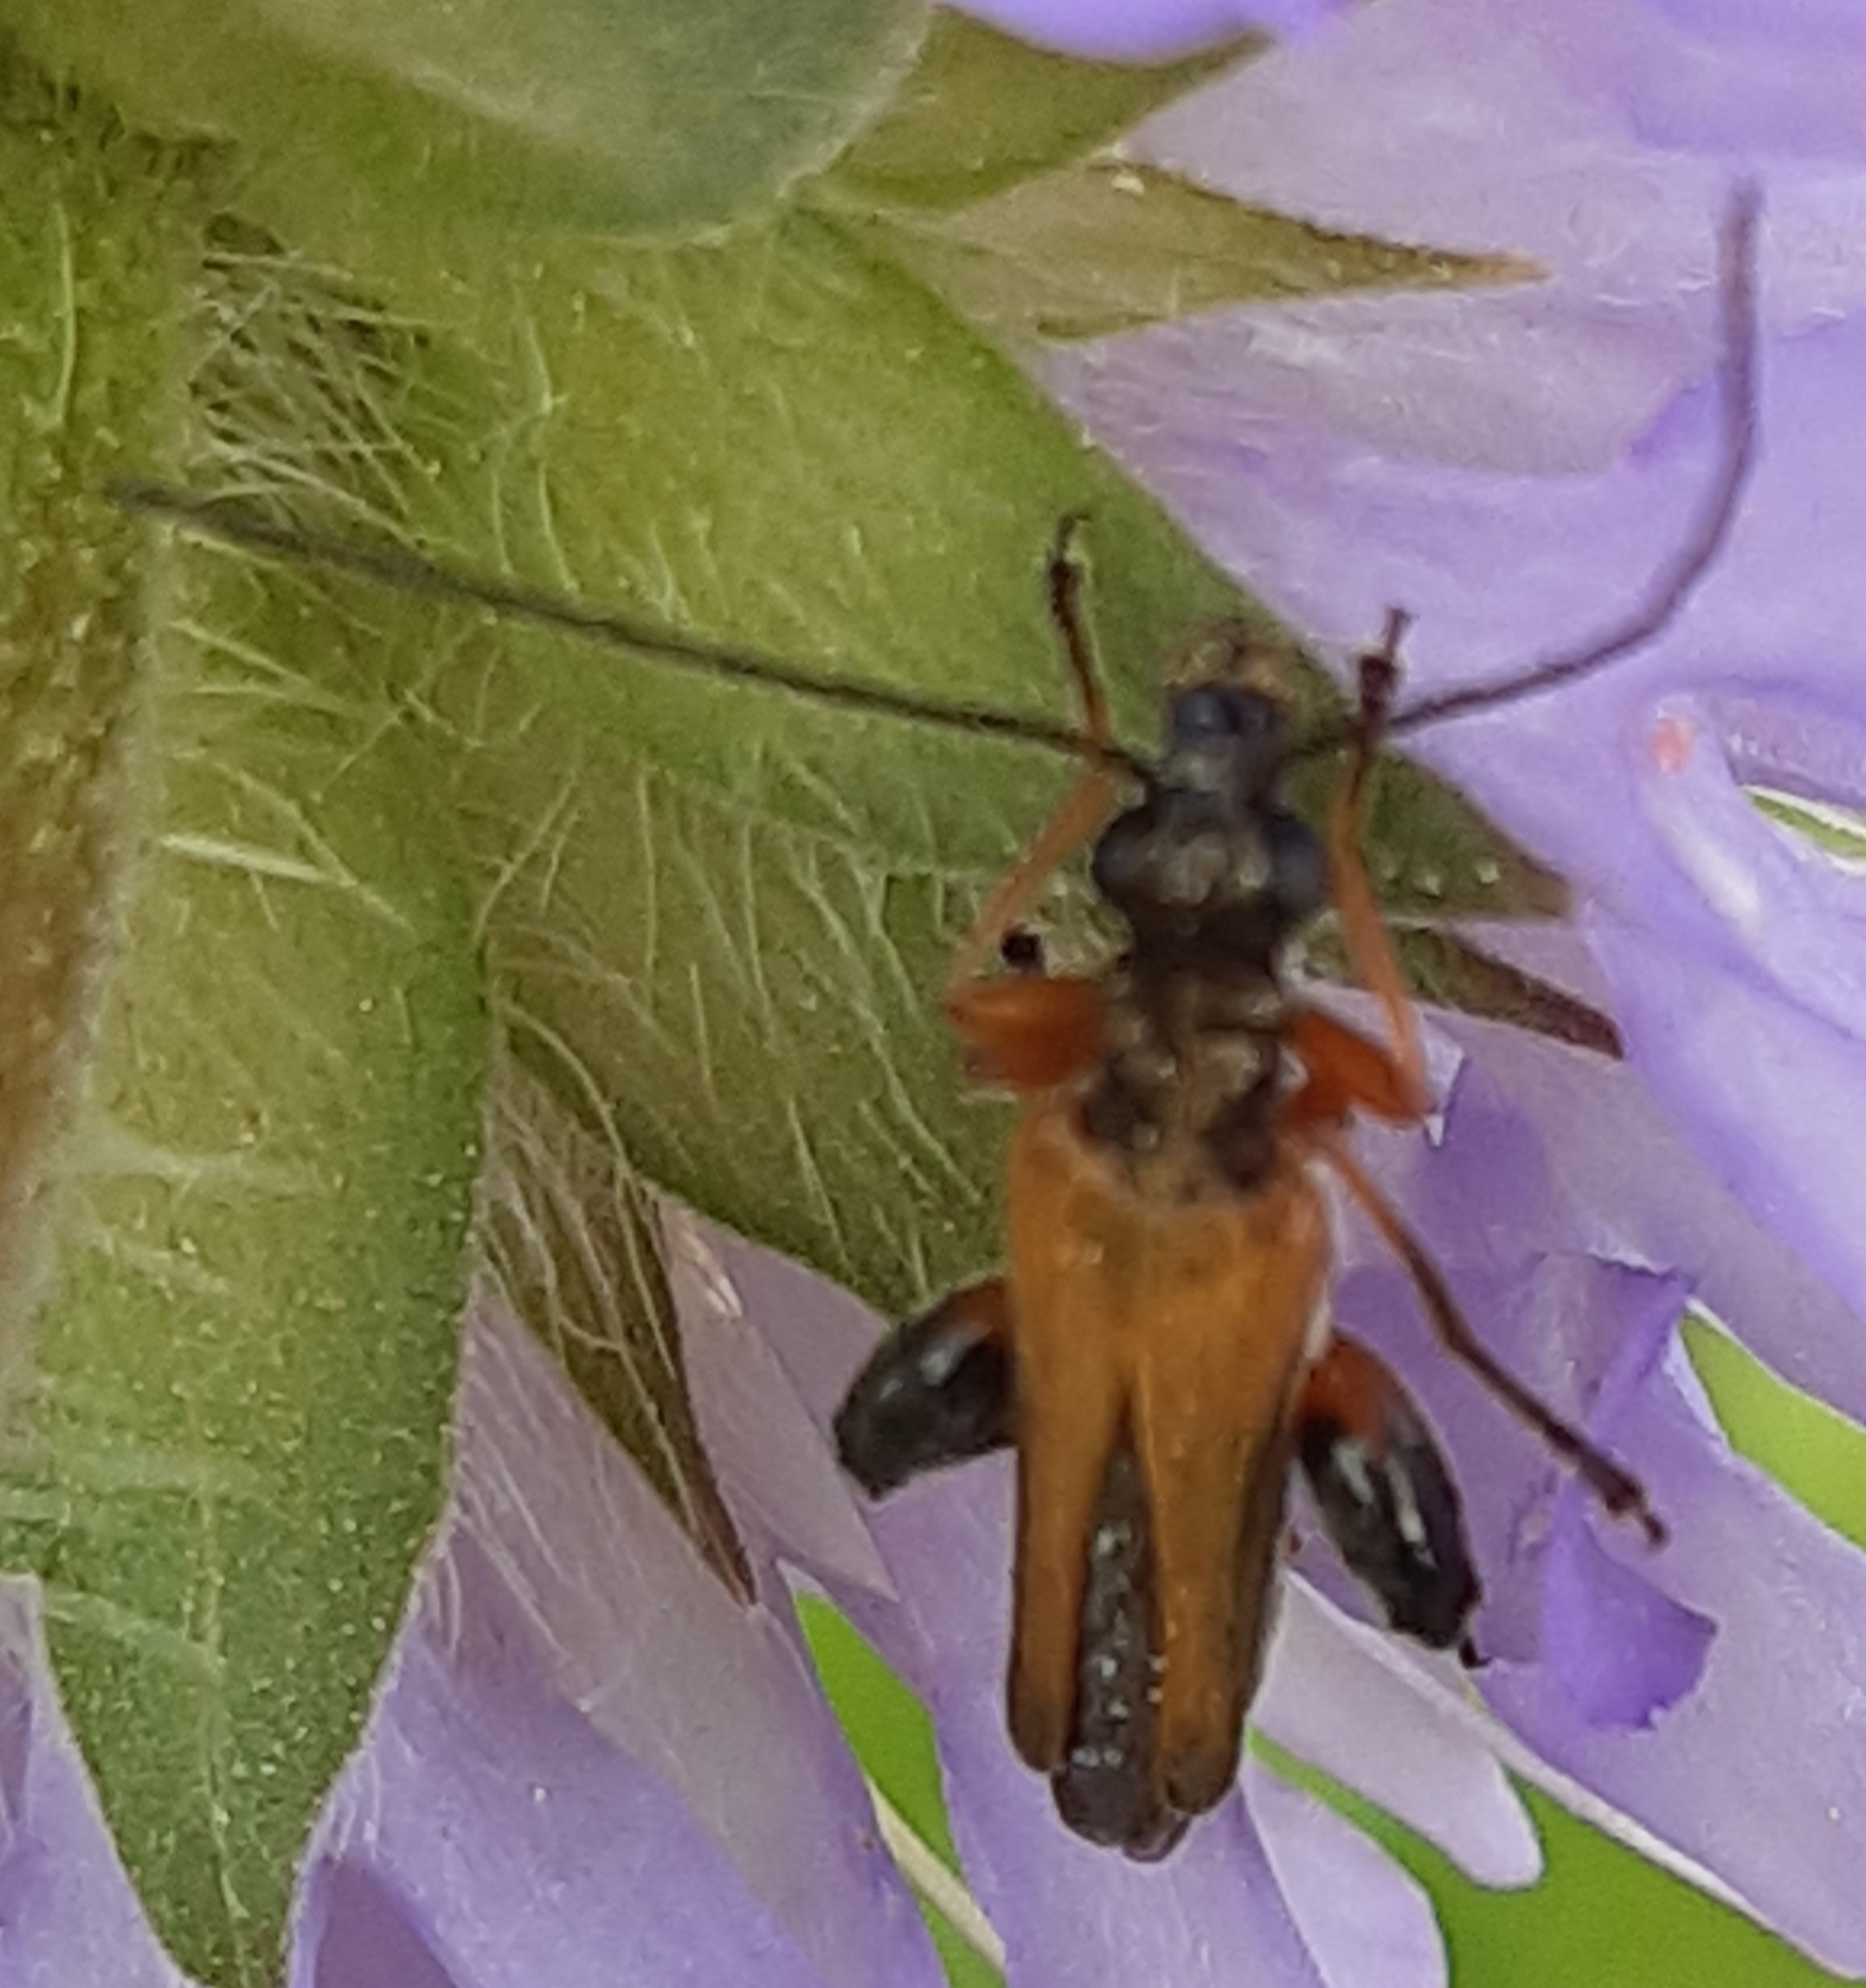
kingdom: Animalia
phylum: Arthropoda
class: Insecta
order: Coleoptera
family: Oedemeridae
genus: Oedemera
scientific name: Oedemera podagrariae
